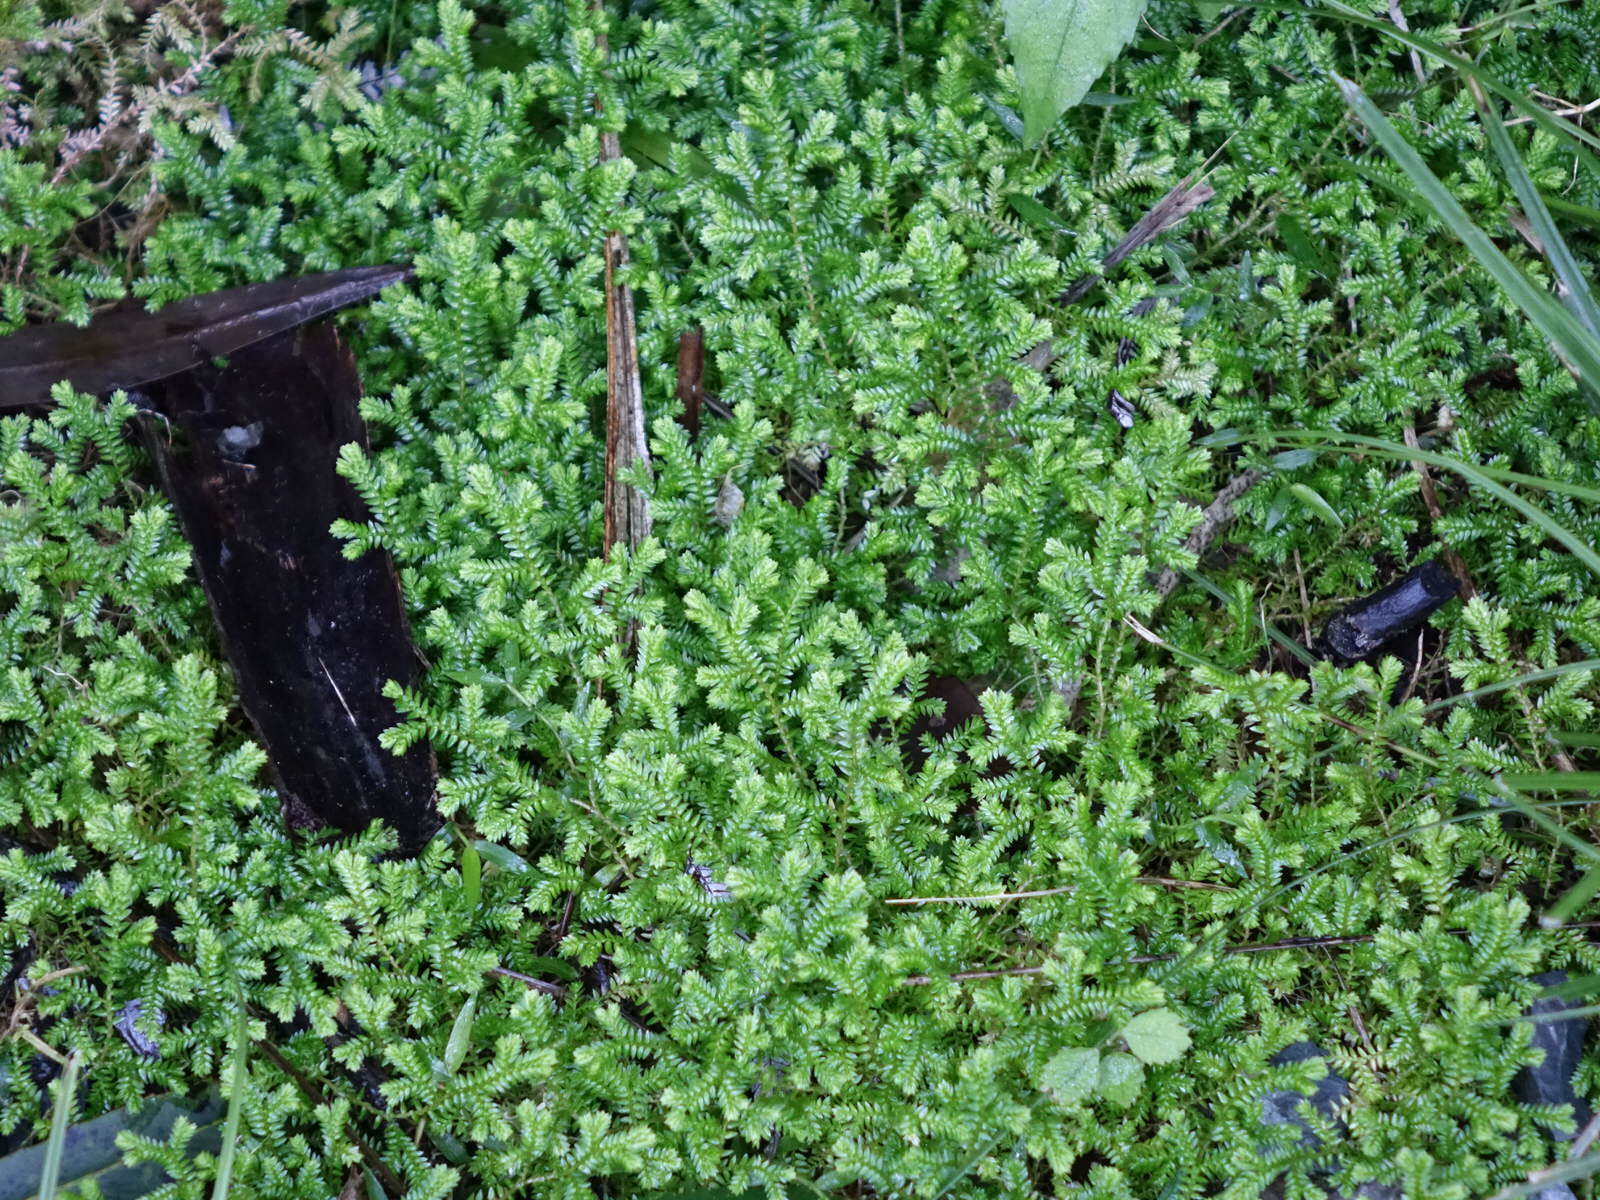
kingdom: Plantae
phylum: Tracheophyta
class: Lycopodiopsida
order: Selaginellales
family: Selaginellaceae
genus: Selaginella
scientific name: Selaginella kraussiana
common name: Krauss' spikemoss
